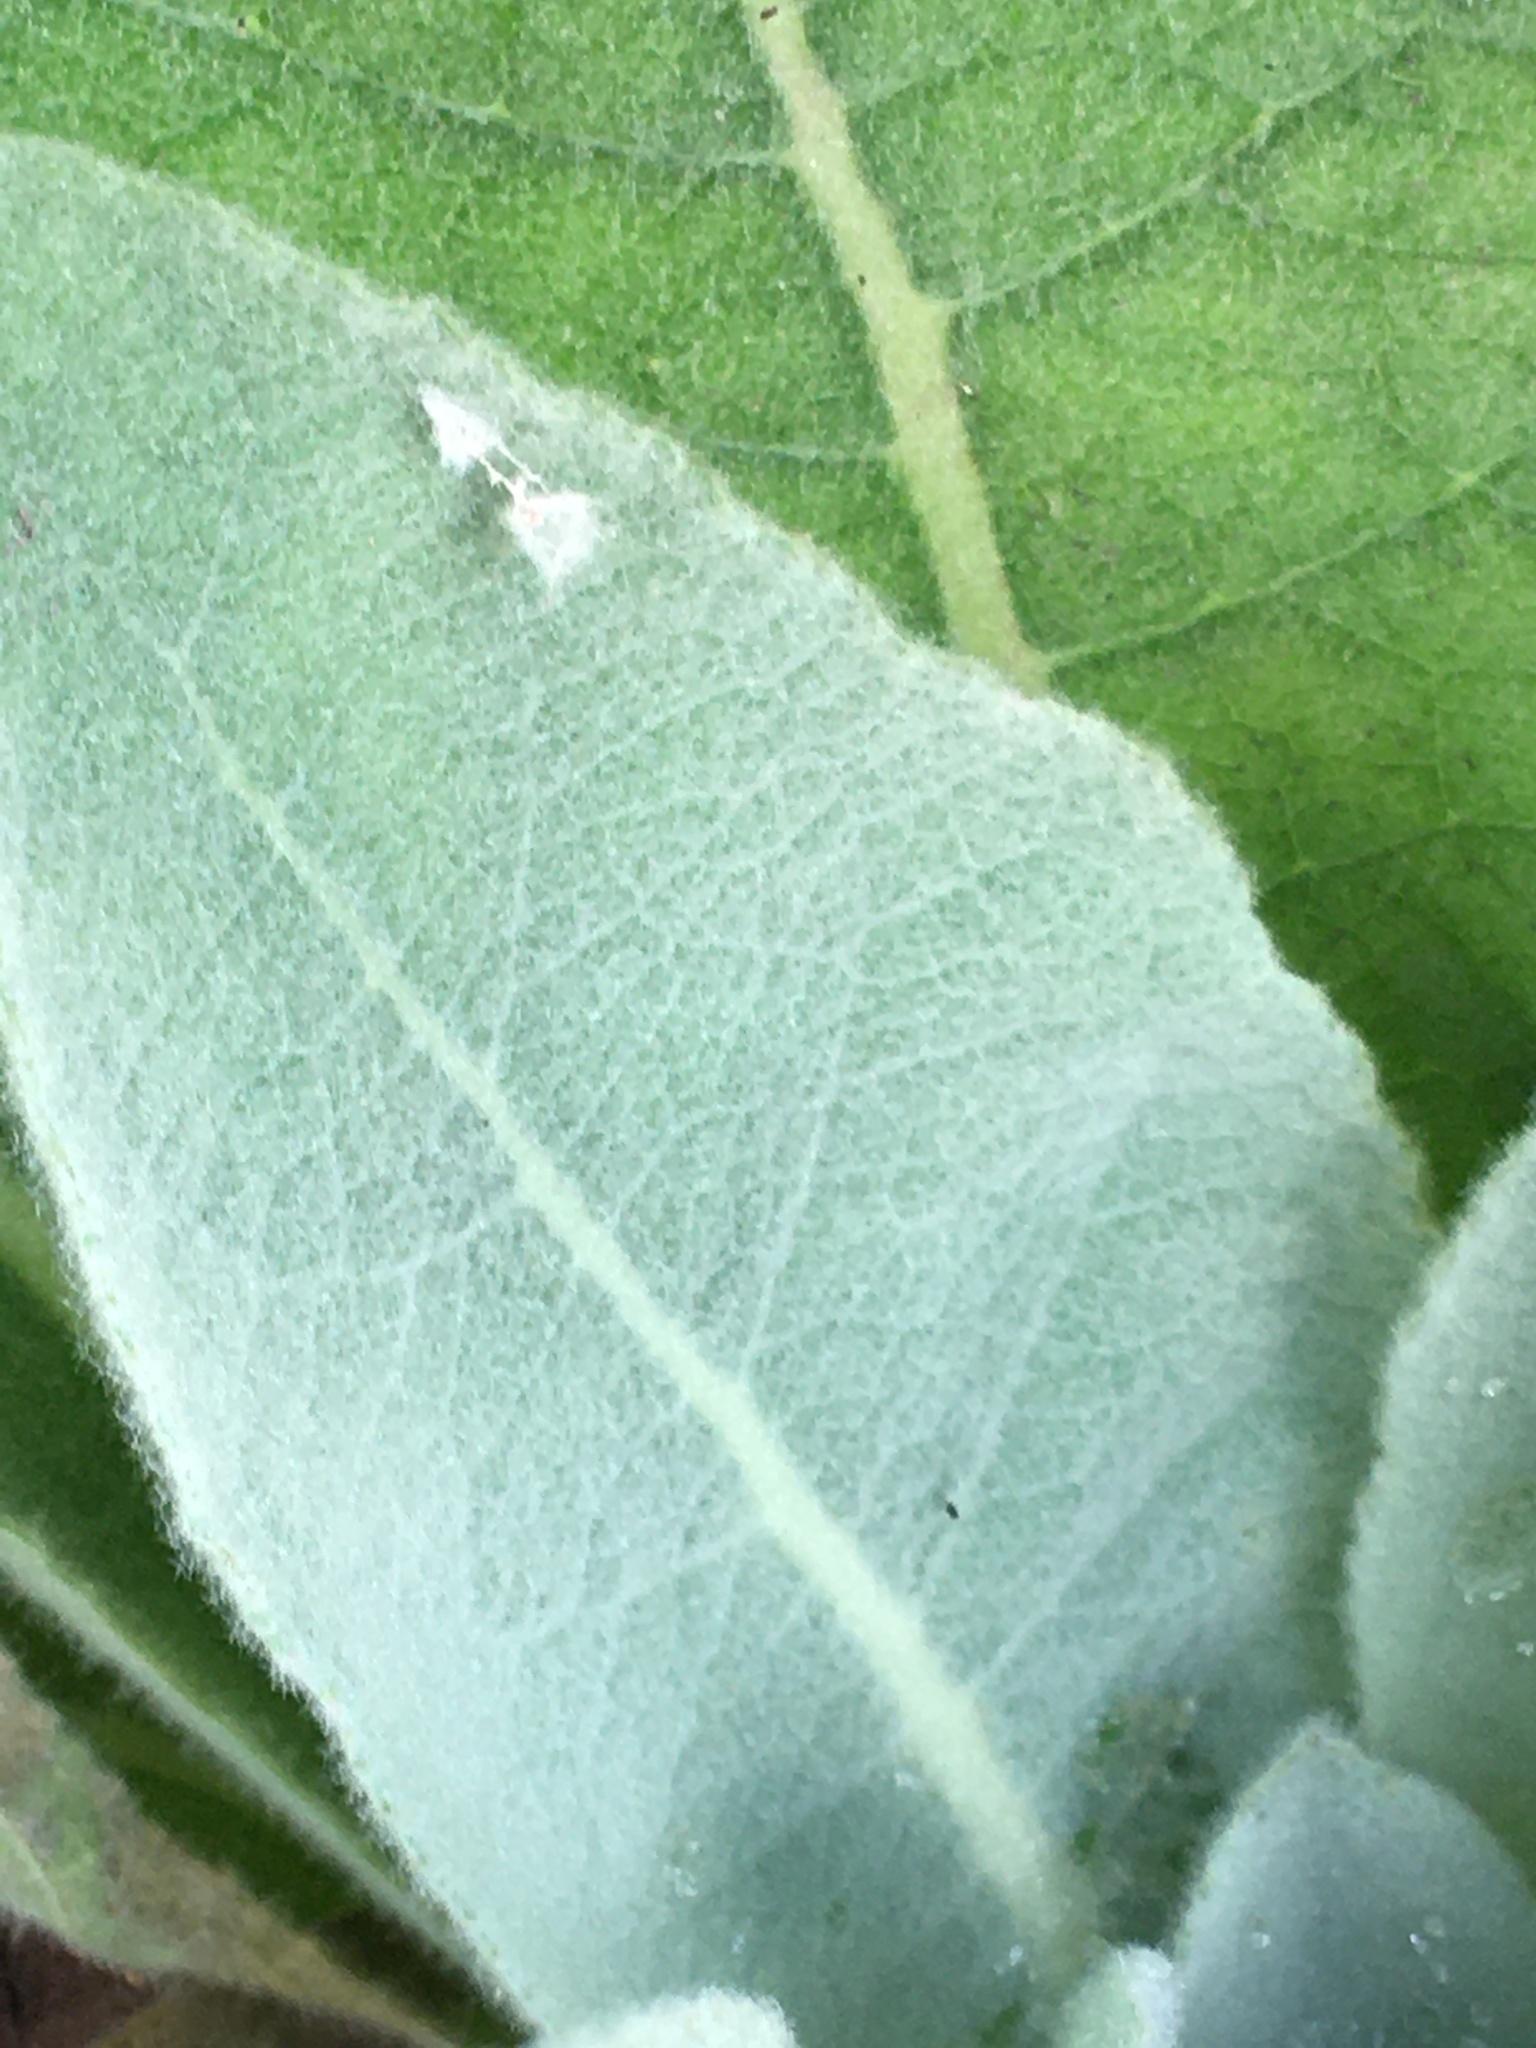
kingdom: Plantae
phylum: Tracheophyta
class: Magnoliopsida
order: Lamiales
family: Scrophulariaceae
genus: Verbascum
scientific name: Verbascum thapsus
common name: Common mullein
